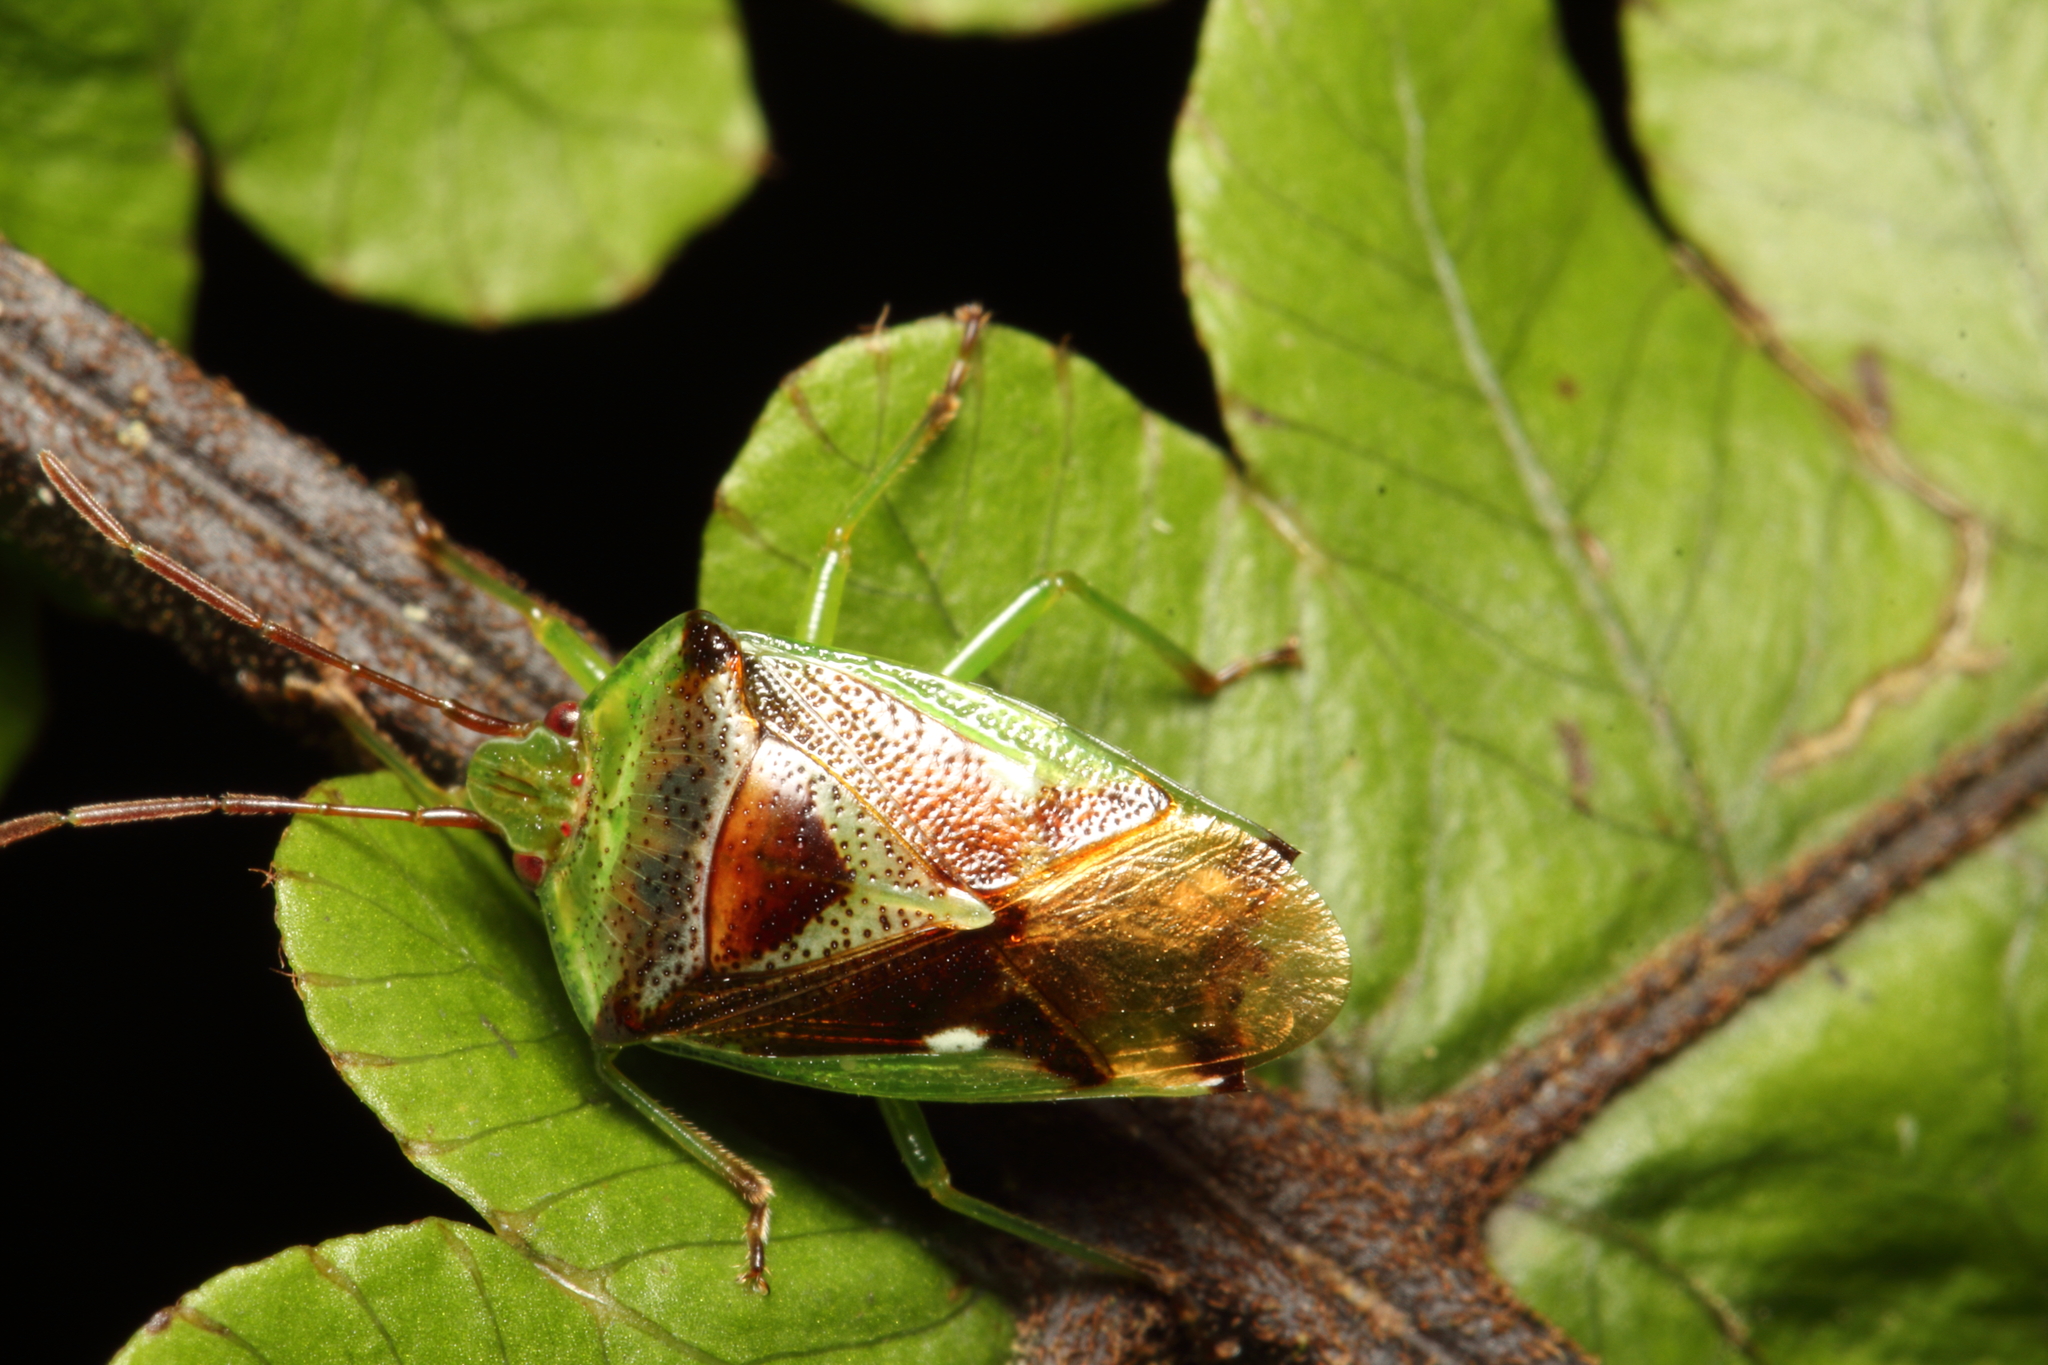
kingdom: Animalia
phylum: Arthropoda
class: Insecta
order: Hemiptera
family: Acanthosomatidae
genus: Oncacontias
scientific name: Oncacontias vittatus
